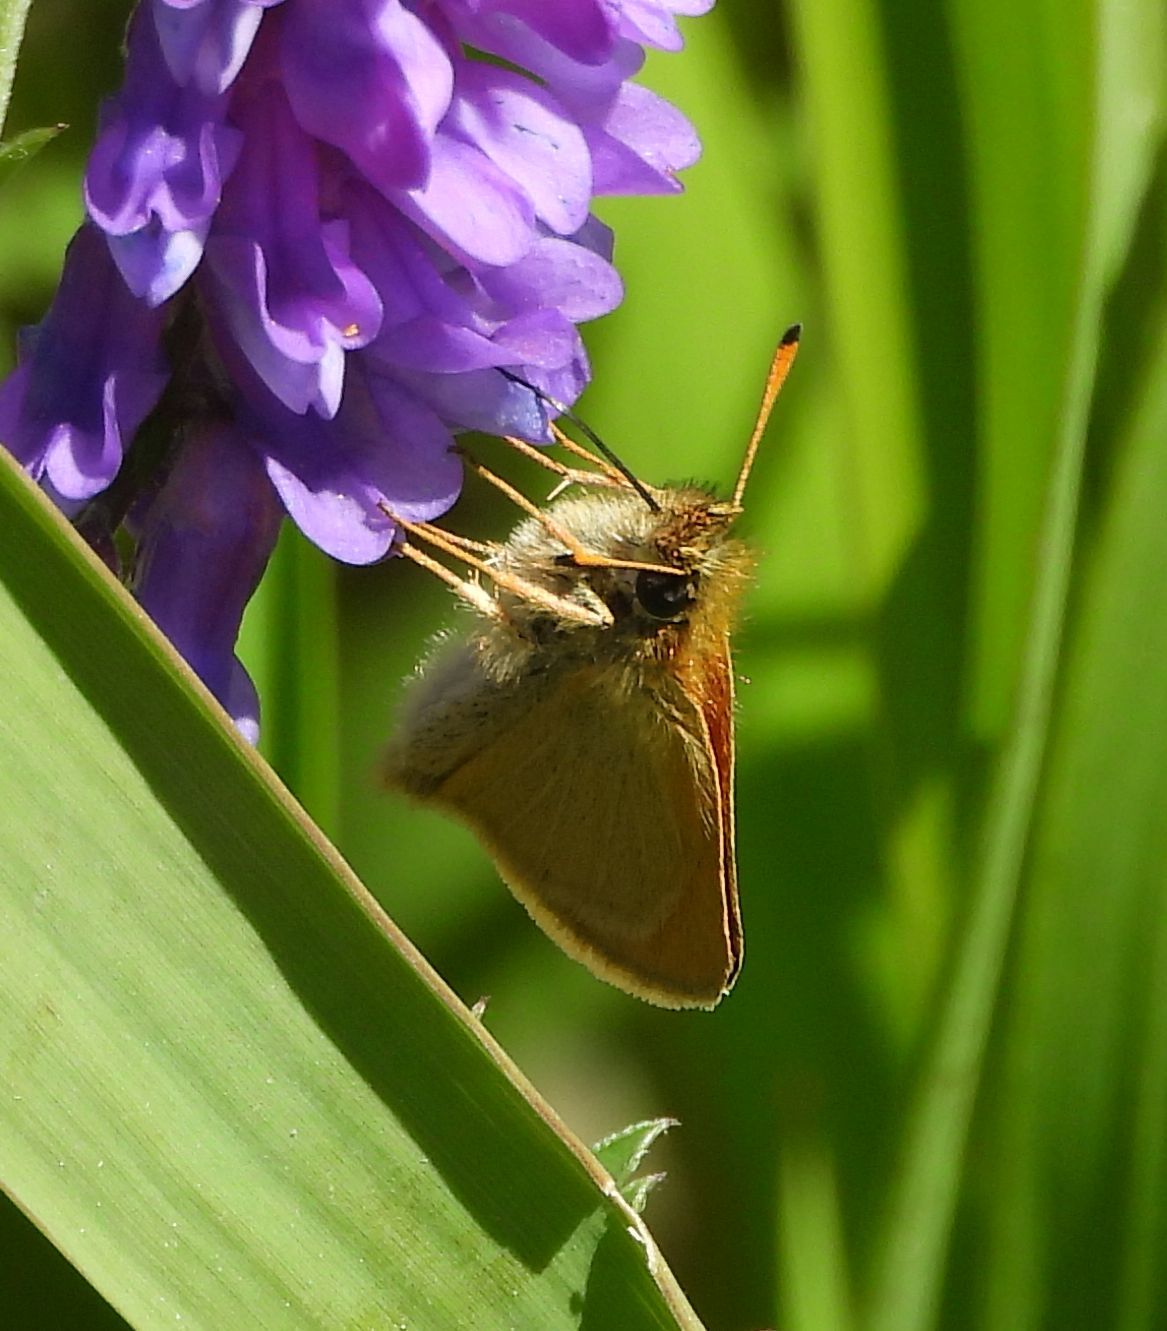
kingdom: Animalia
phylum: Arthropoda
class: Insecta
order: Lepidoptera
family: Hesperiidae
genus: Thymelicus
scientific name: Thymelicus lineola
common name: Essex skipper
